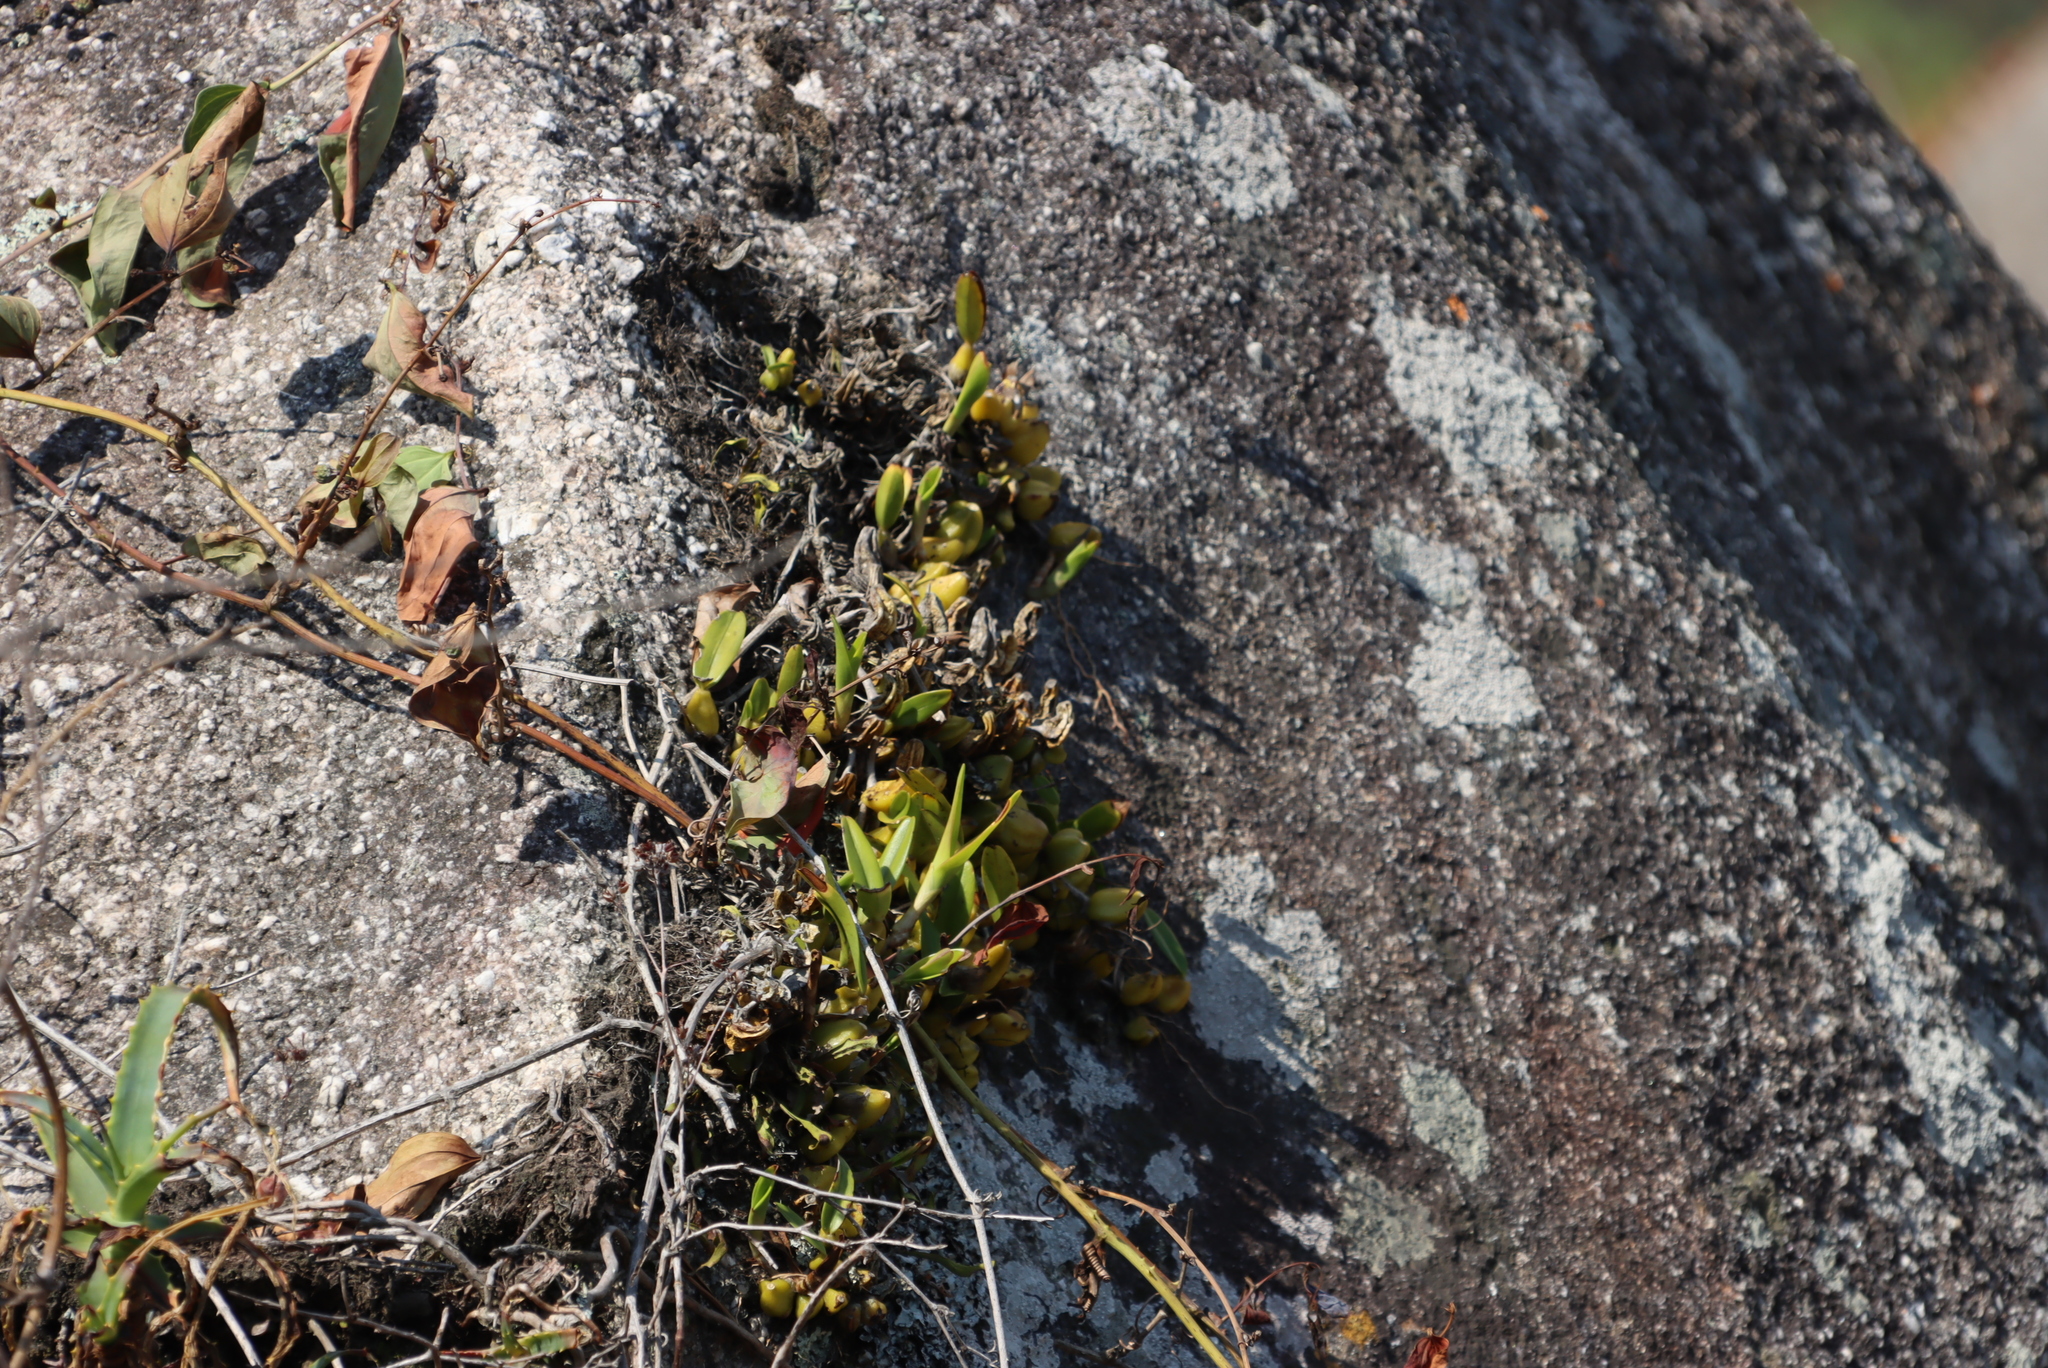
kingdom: Plantae
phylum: Tracheophyta
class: Liliopsida
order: Liliales
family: Smilacaceae
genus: Smilax
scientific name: Smilax anceps
